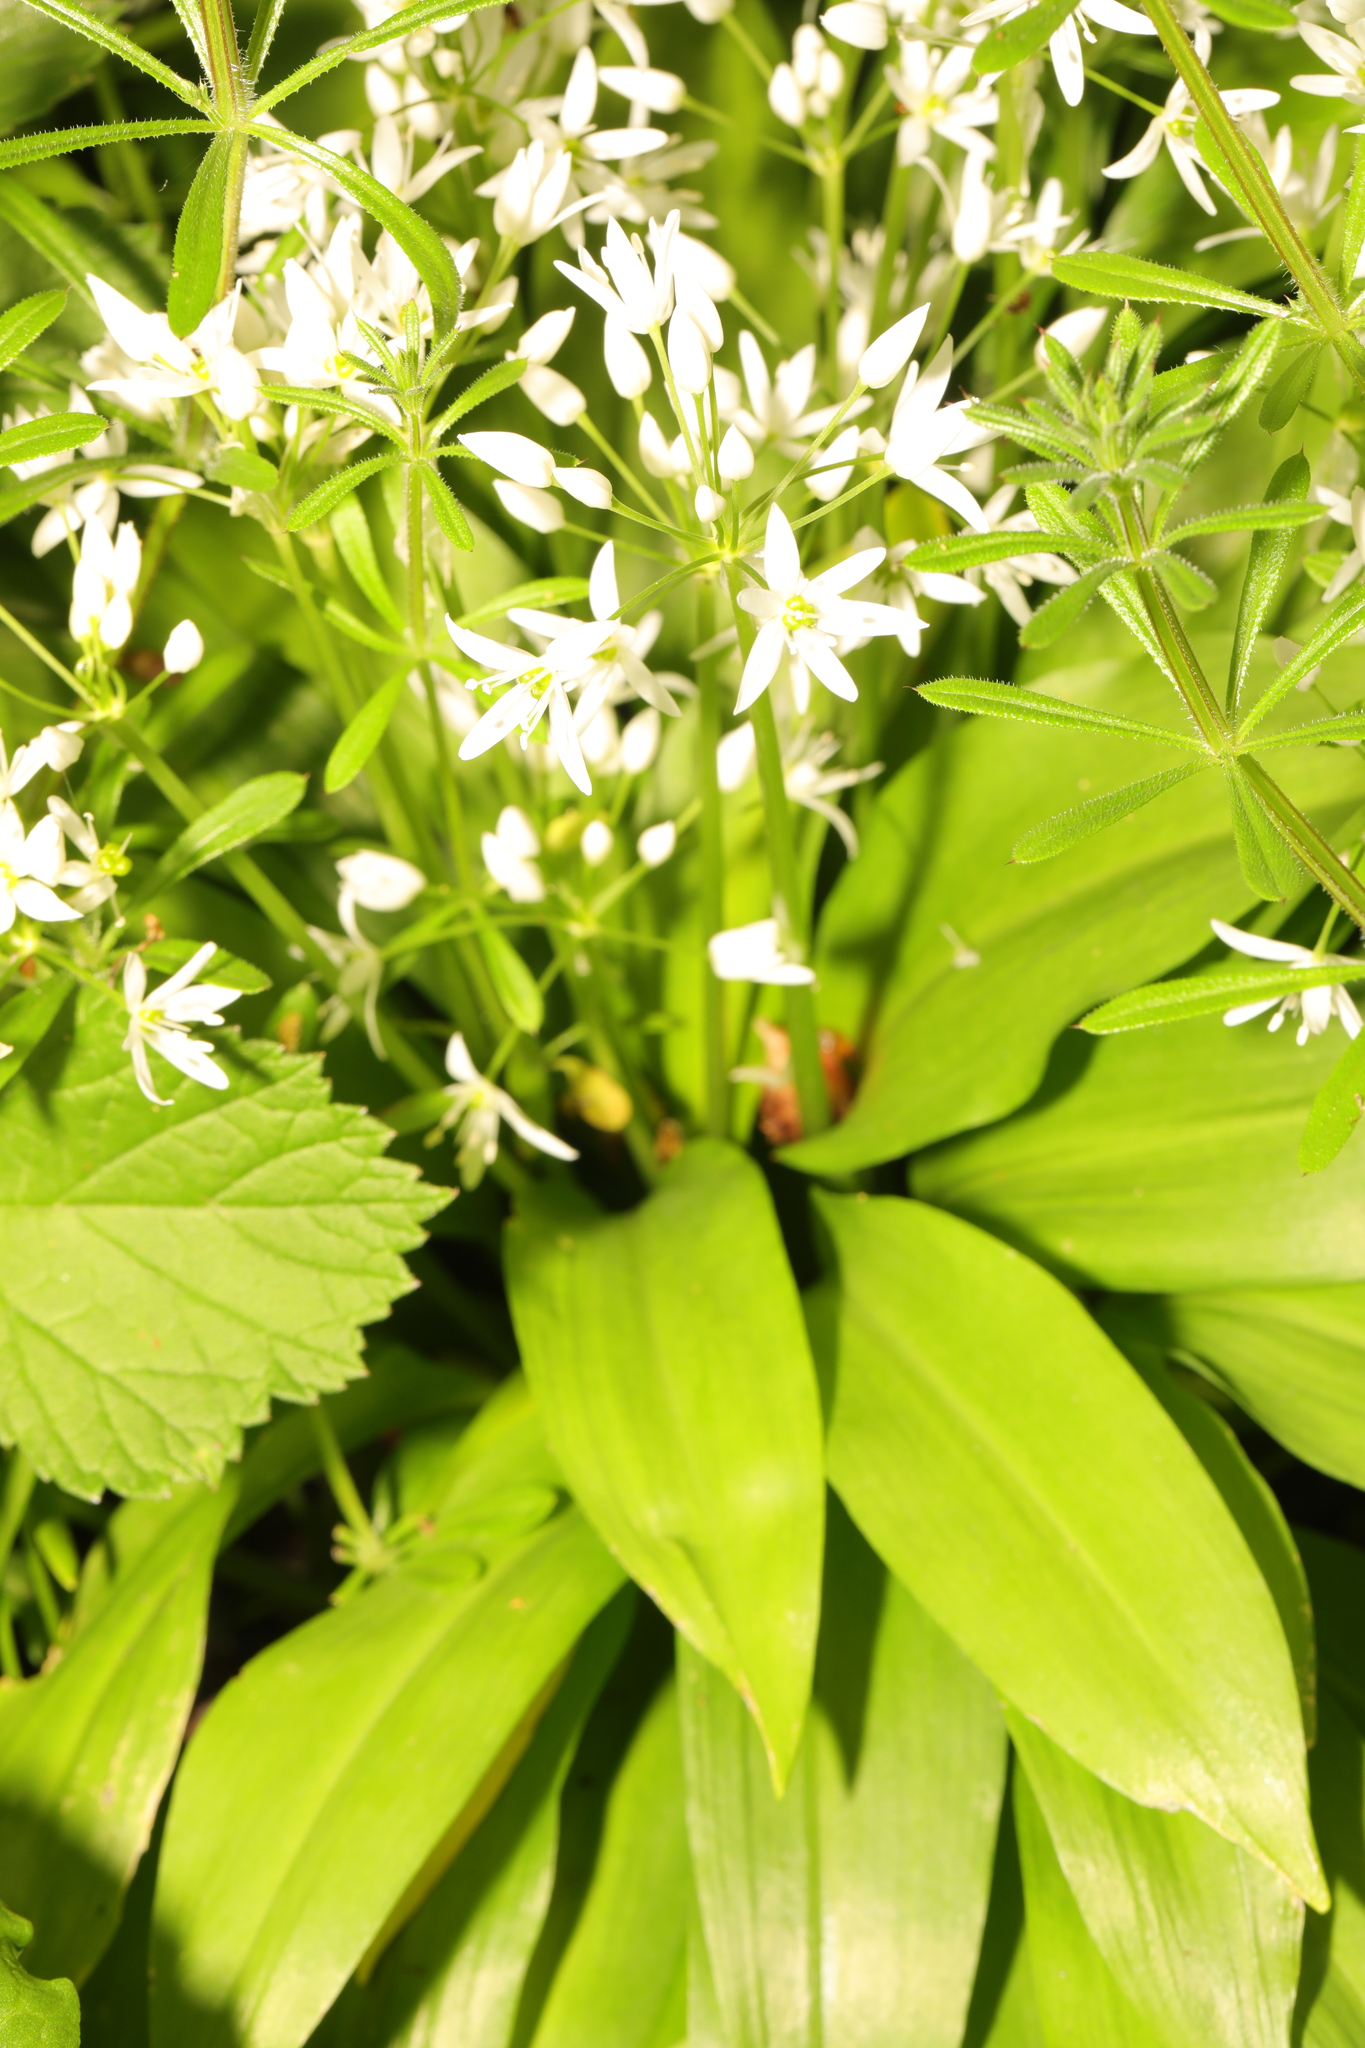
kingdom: Plantae
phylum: Tracheophyta
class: Liliopsida
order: Asparagales
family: Amaryllidaceae
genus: Allium
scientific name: Allium ursinum
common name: Ramsons
